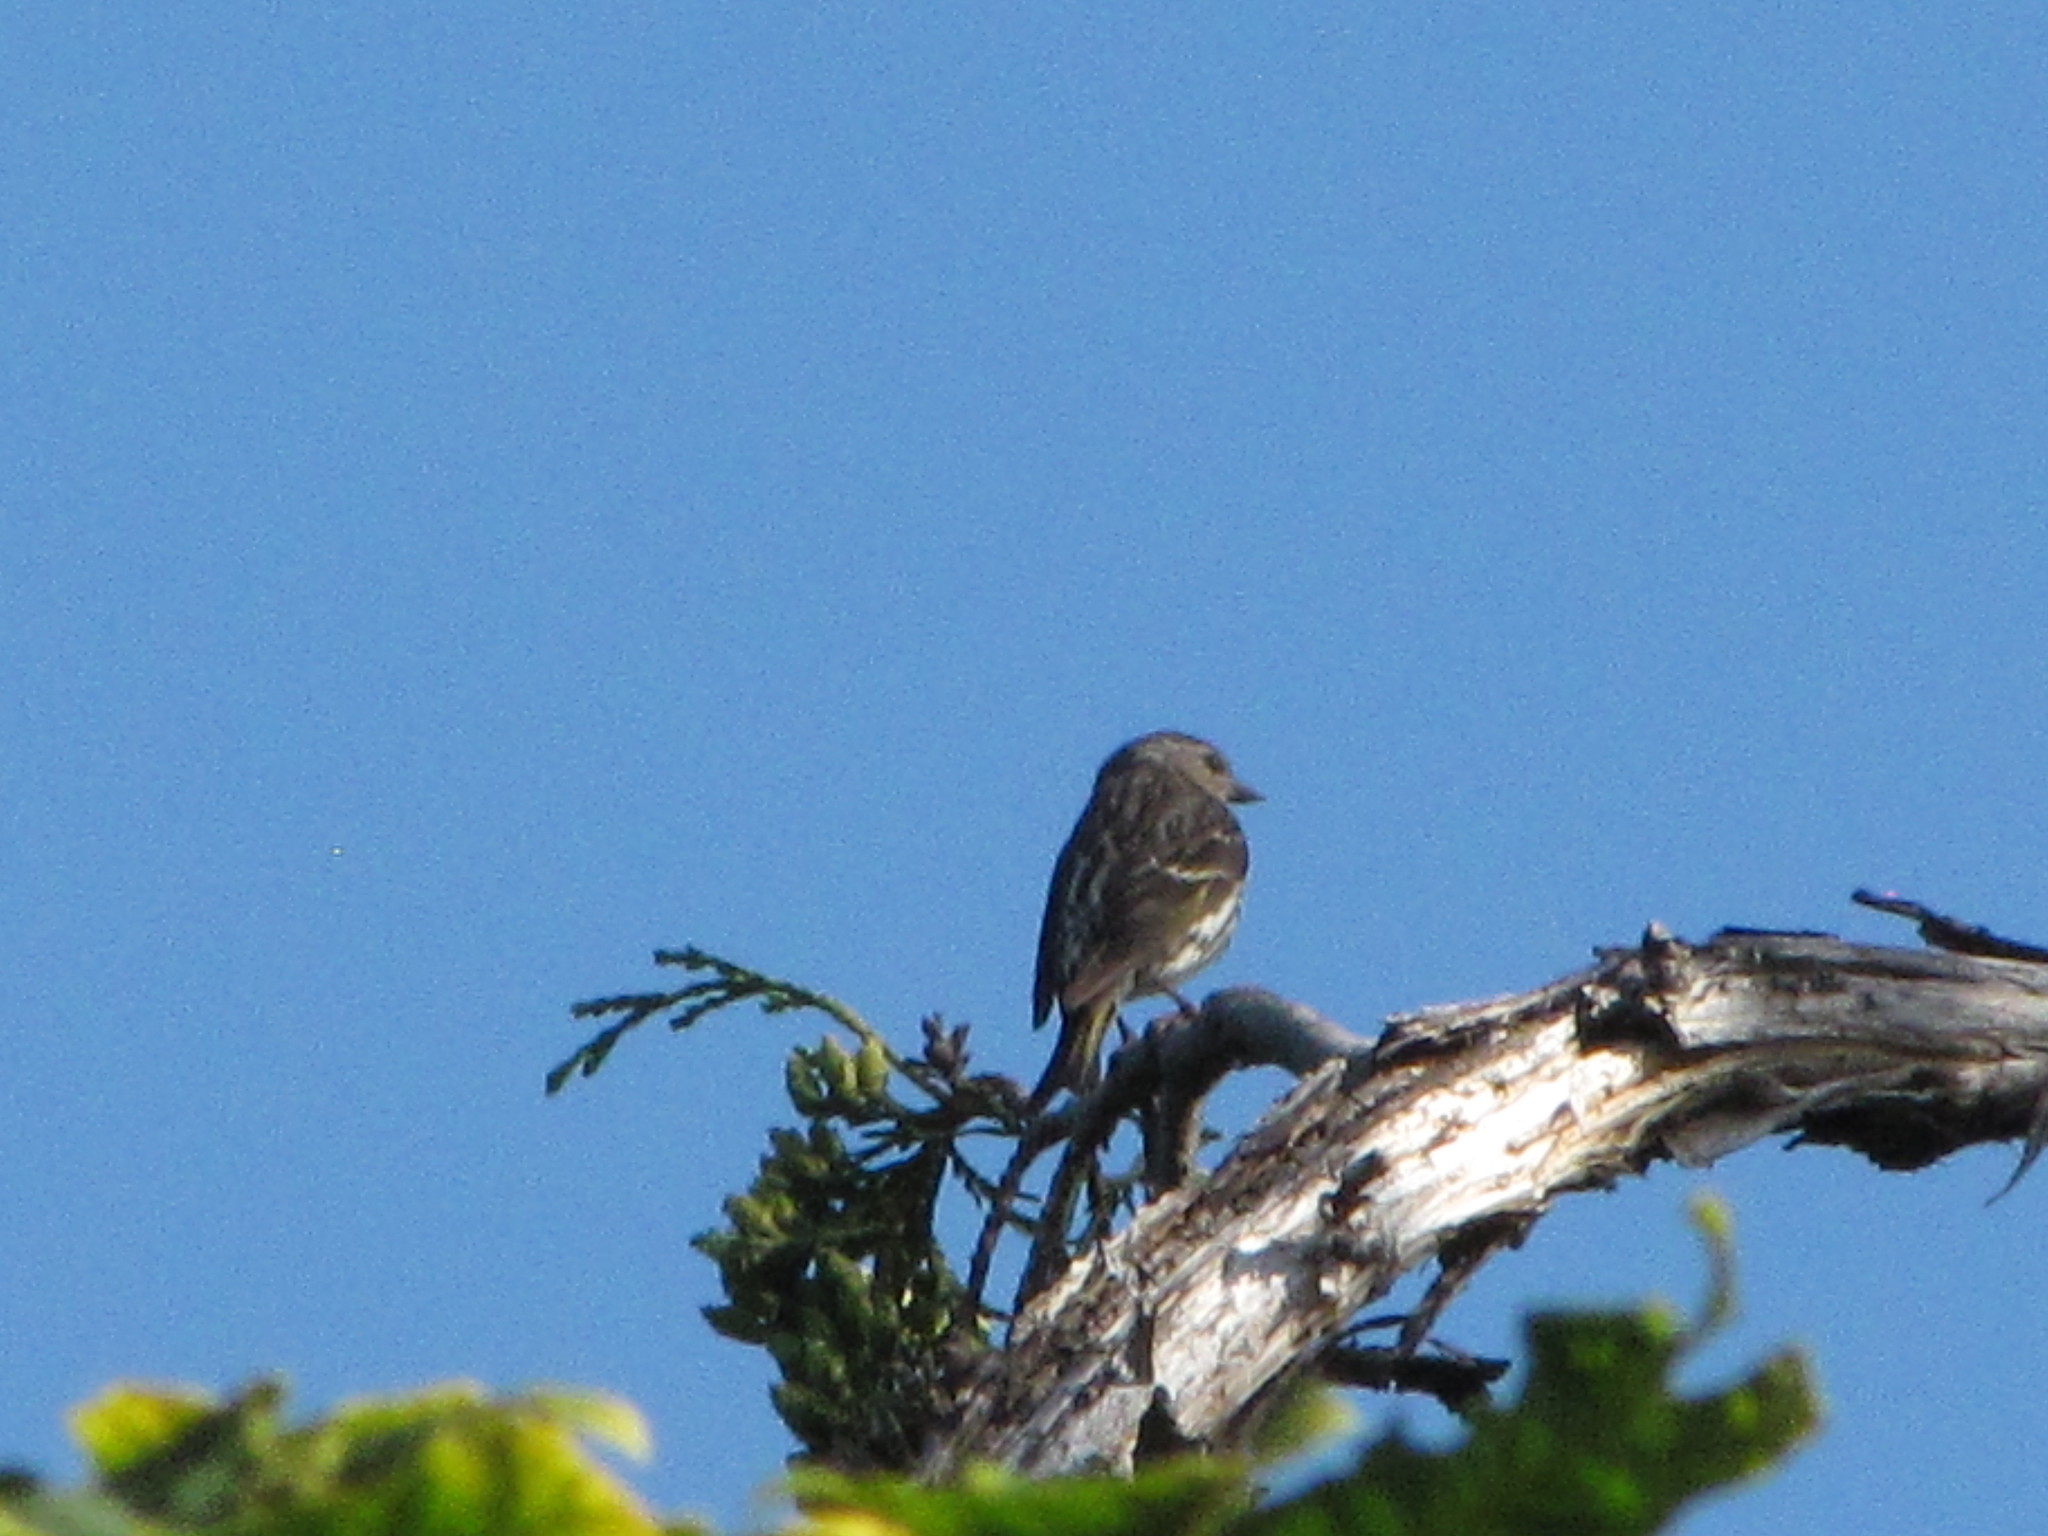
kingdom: Animalia
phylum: Chordata
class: Aves
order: Passeriformes
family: Fringillidae
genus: Spinus
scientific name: Spinus pinus
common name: Pine siskin
